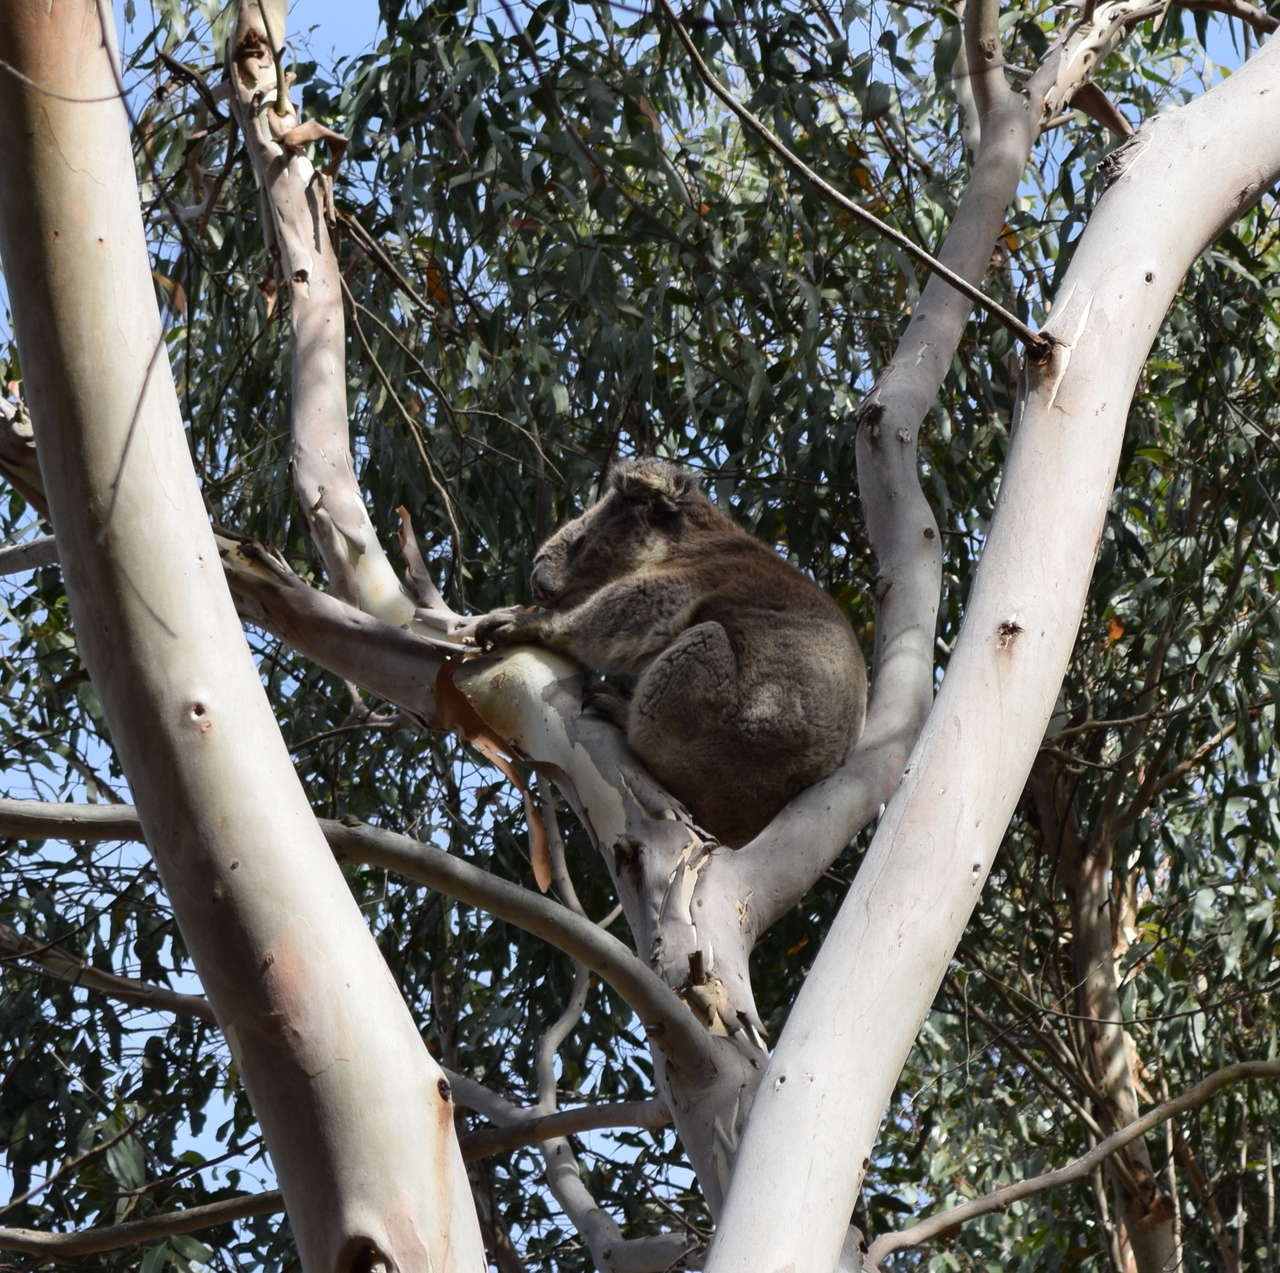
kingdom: Animalia
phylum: Chordata
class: Mammalia
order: Diprotodontia
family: Phascolarctidae
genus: Phascolarctos
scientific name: Phascolarctos cinereus
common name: Koala
